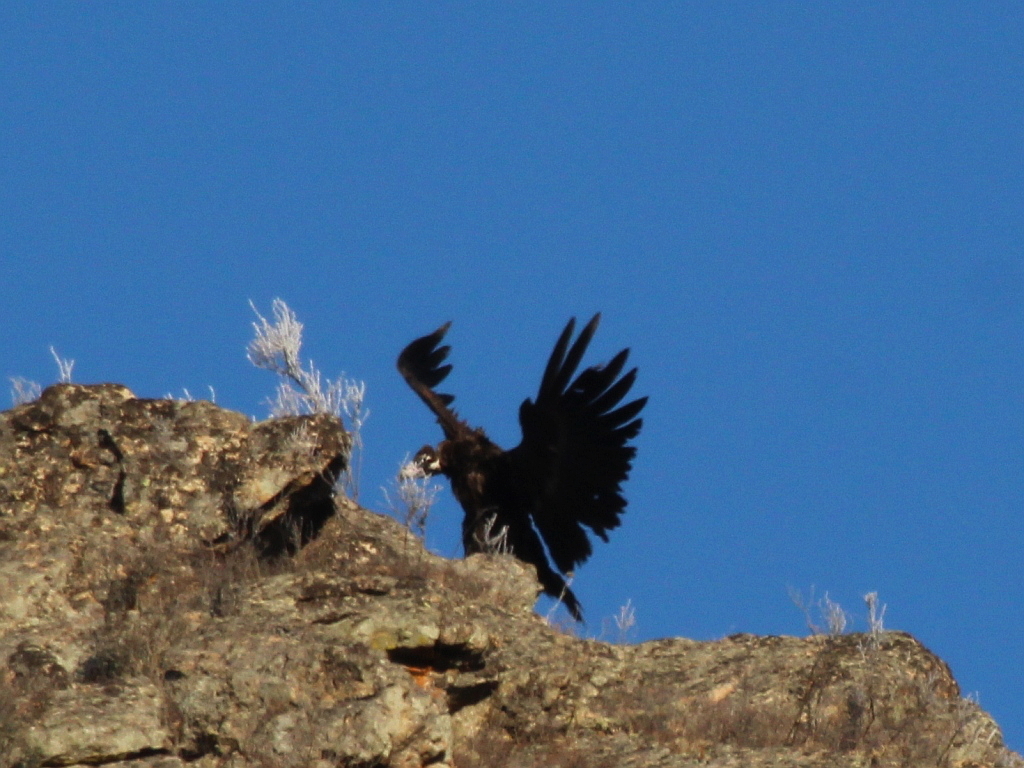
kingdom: Animalia
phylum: Chordata
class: Aves
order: Accipitriformes
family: Accipitridae
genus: Aegypius
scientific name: Aegypius monachus
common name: Cinereous vulture
